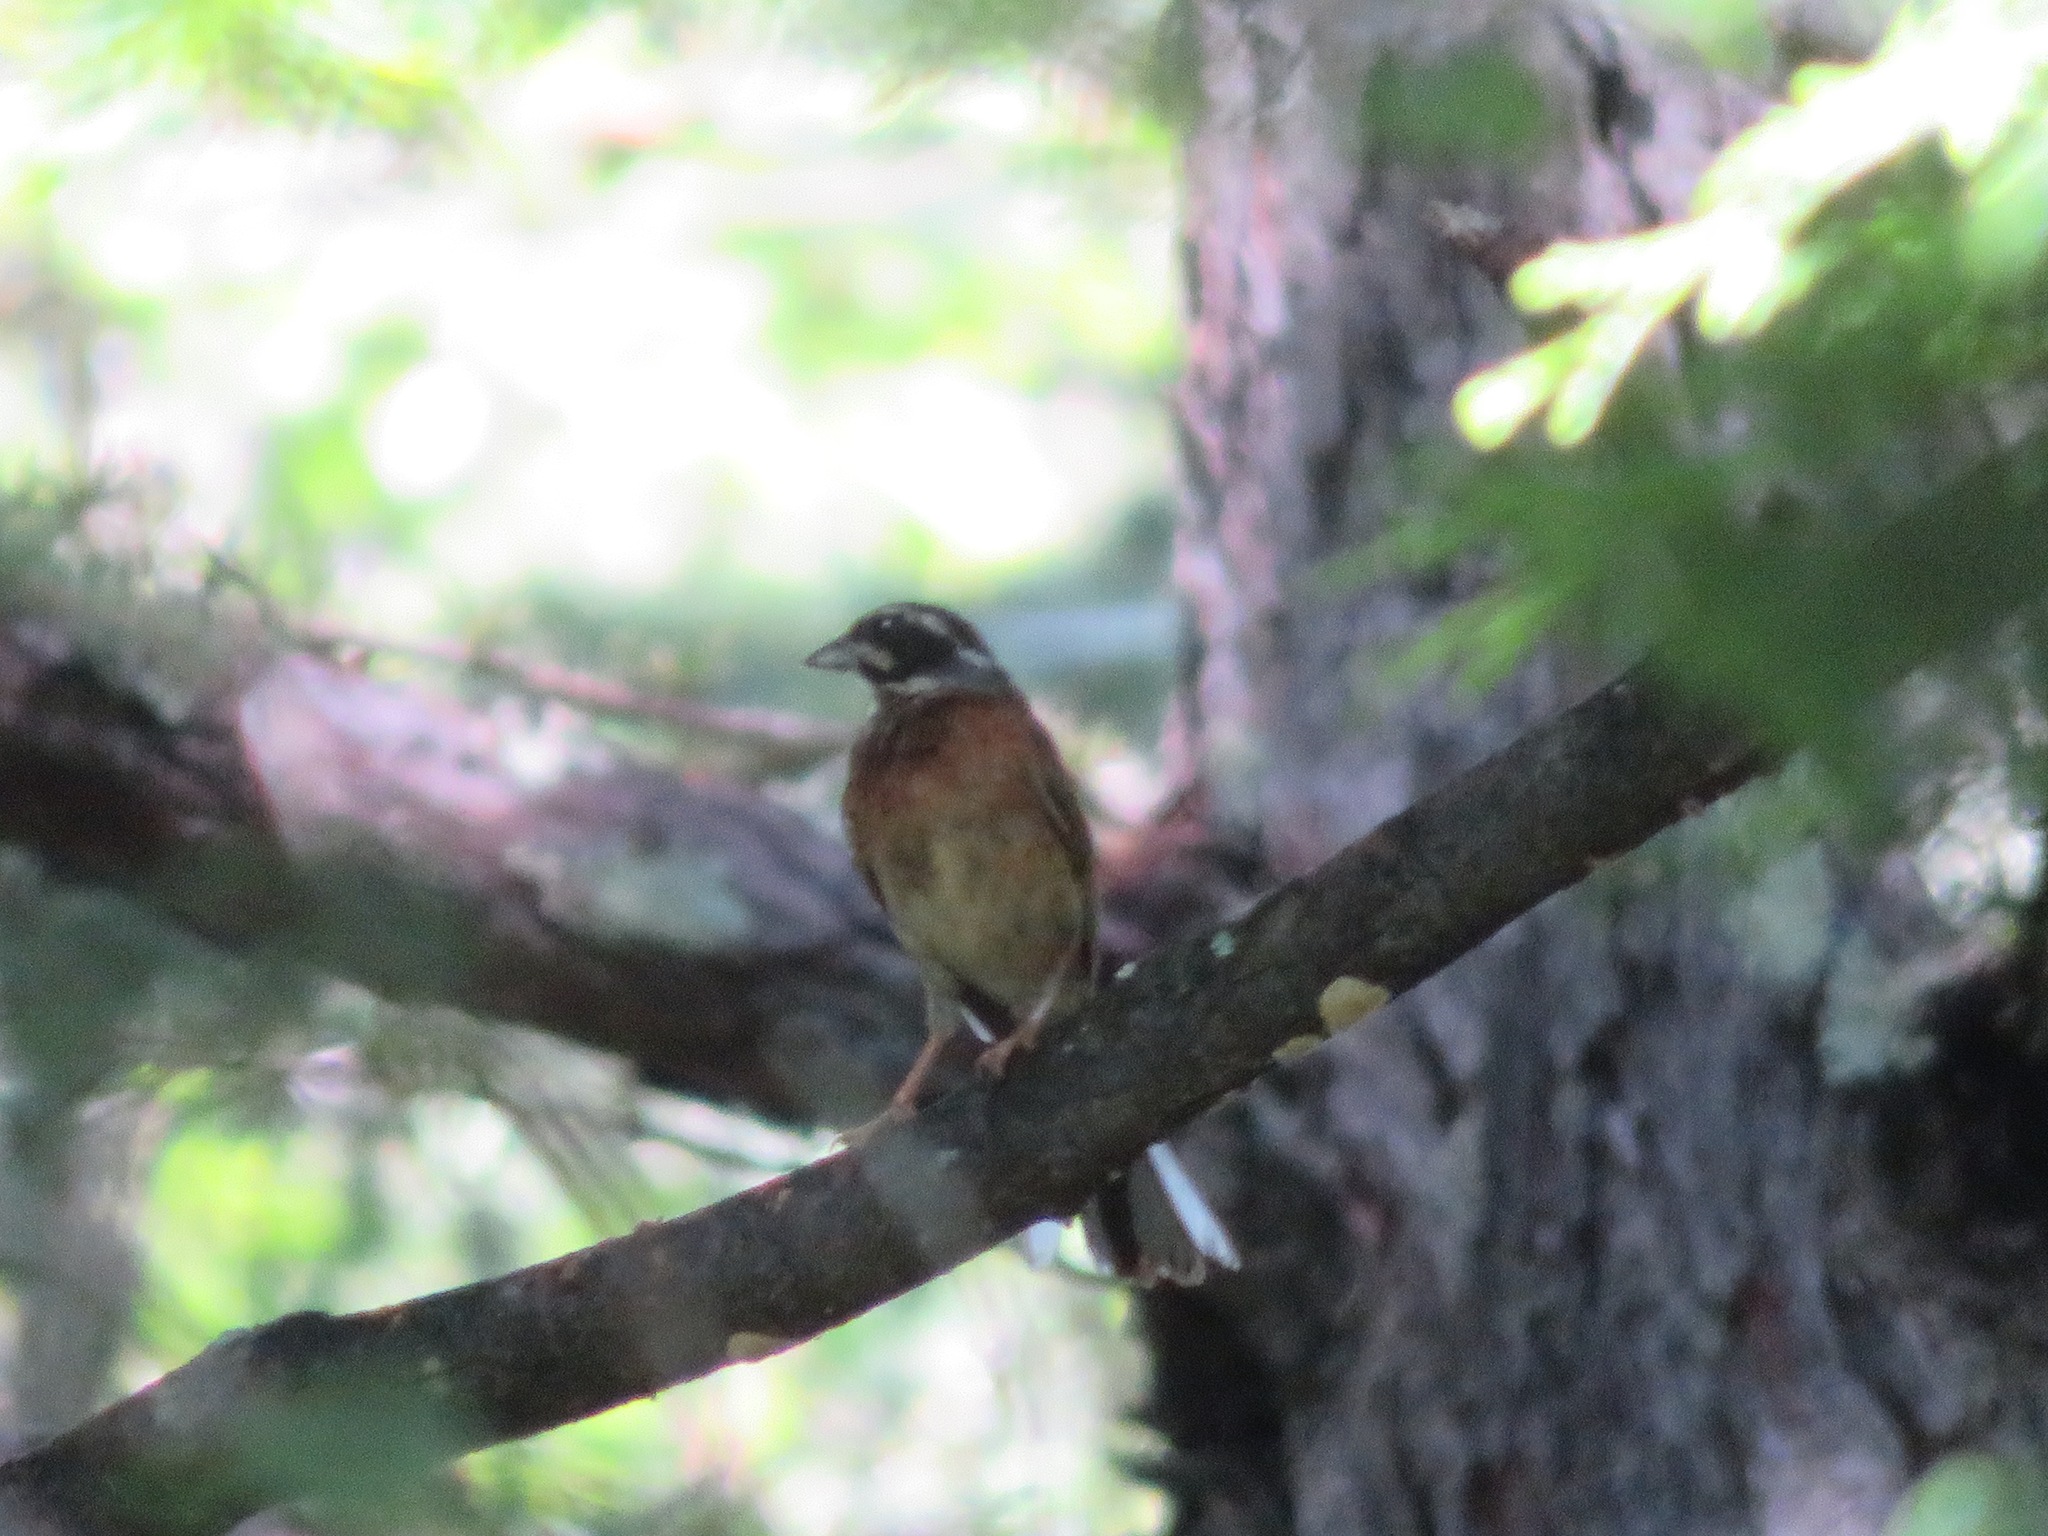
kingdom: Animalia
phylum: Chordata
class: Aves
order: Passeriformes
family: Emberizidae
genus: Emberiza
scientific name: Emberiza cioides
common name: Meadow bunting
